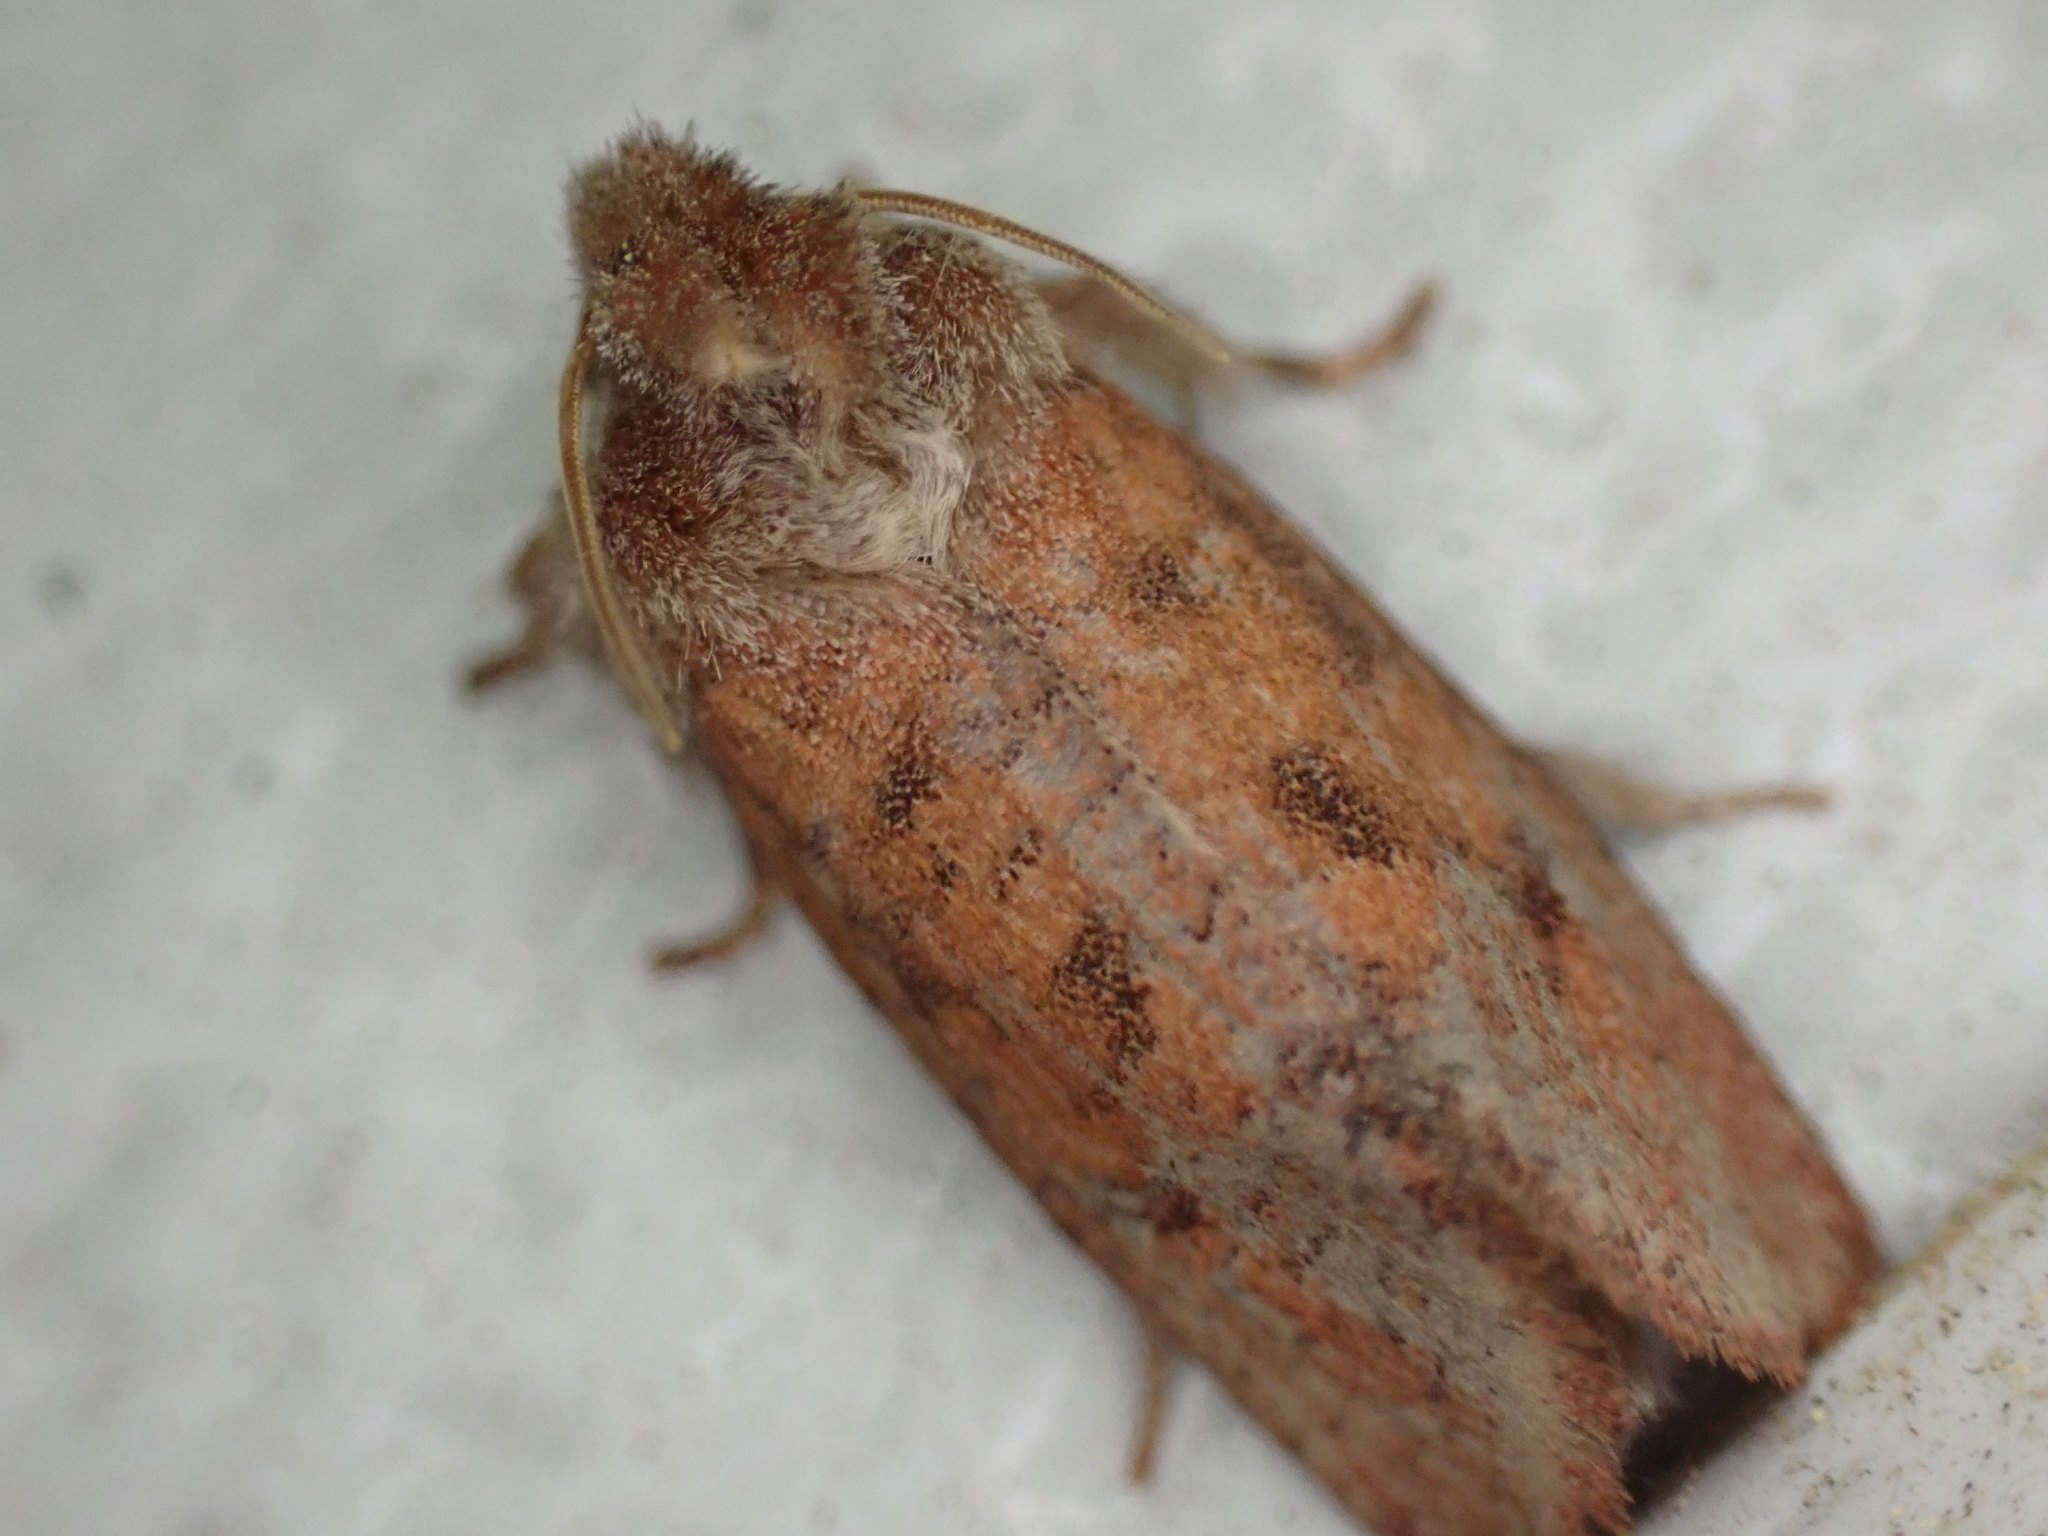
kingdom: Animalia
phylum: Arthropoda
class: Insecta
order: Lepidoptera
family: Tineidae
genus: Acrolophus
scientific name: Acrolophus plumifrontella
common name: Eastern grass tubeworm moth
